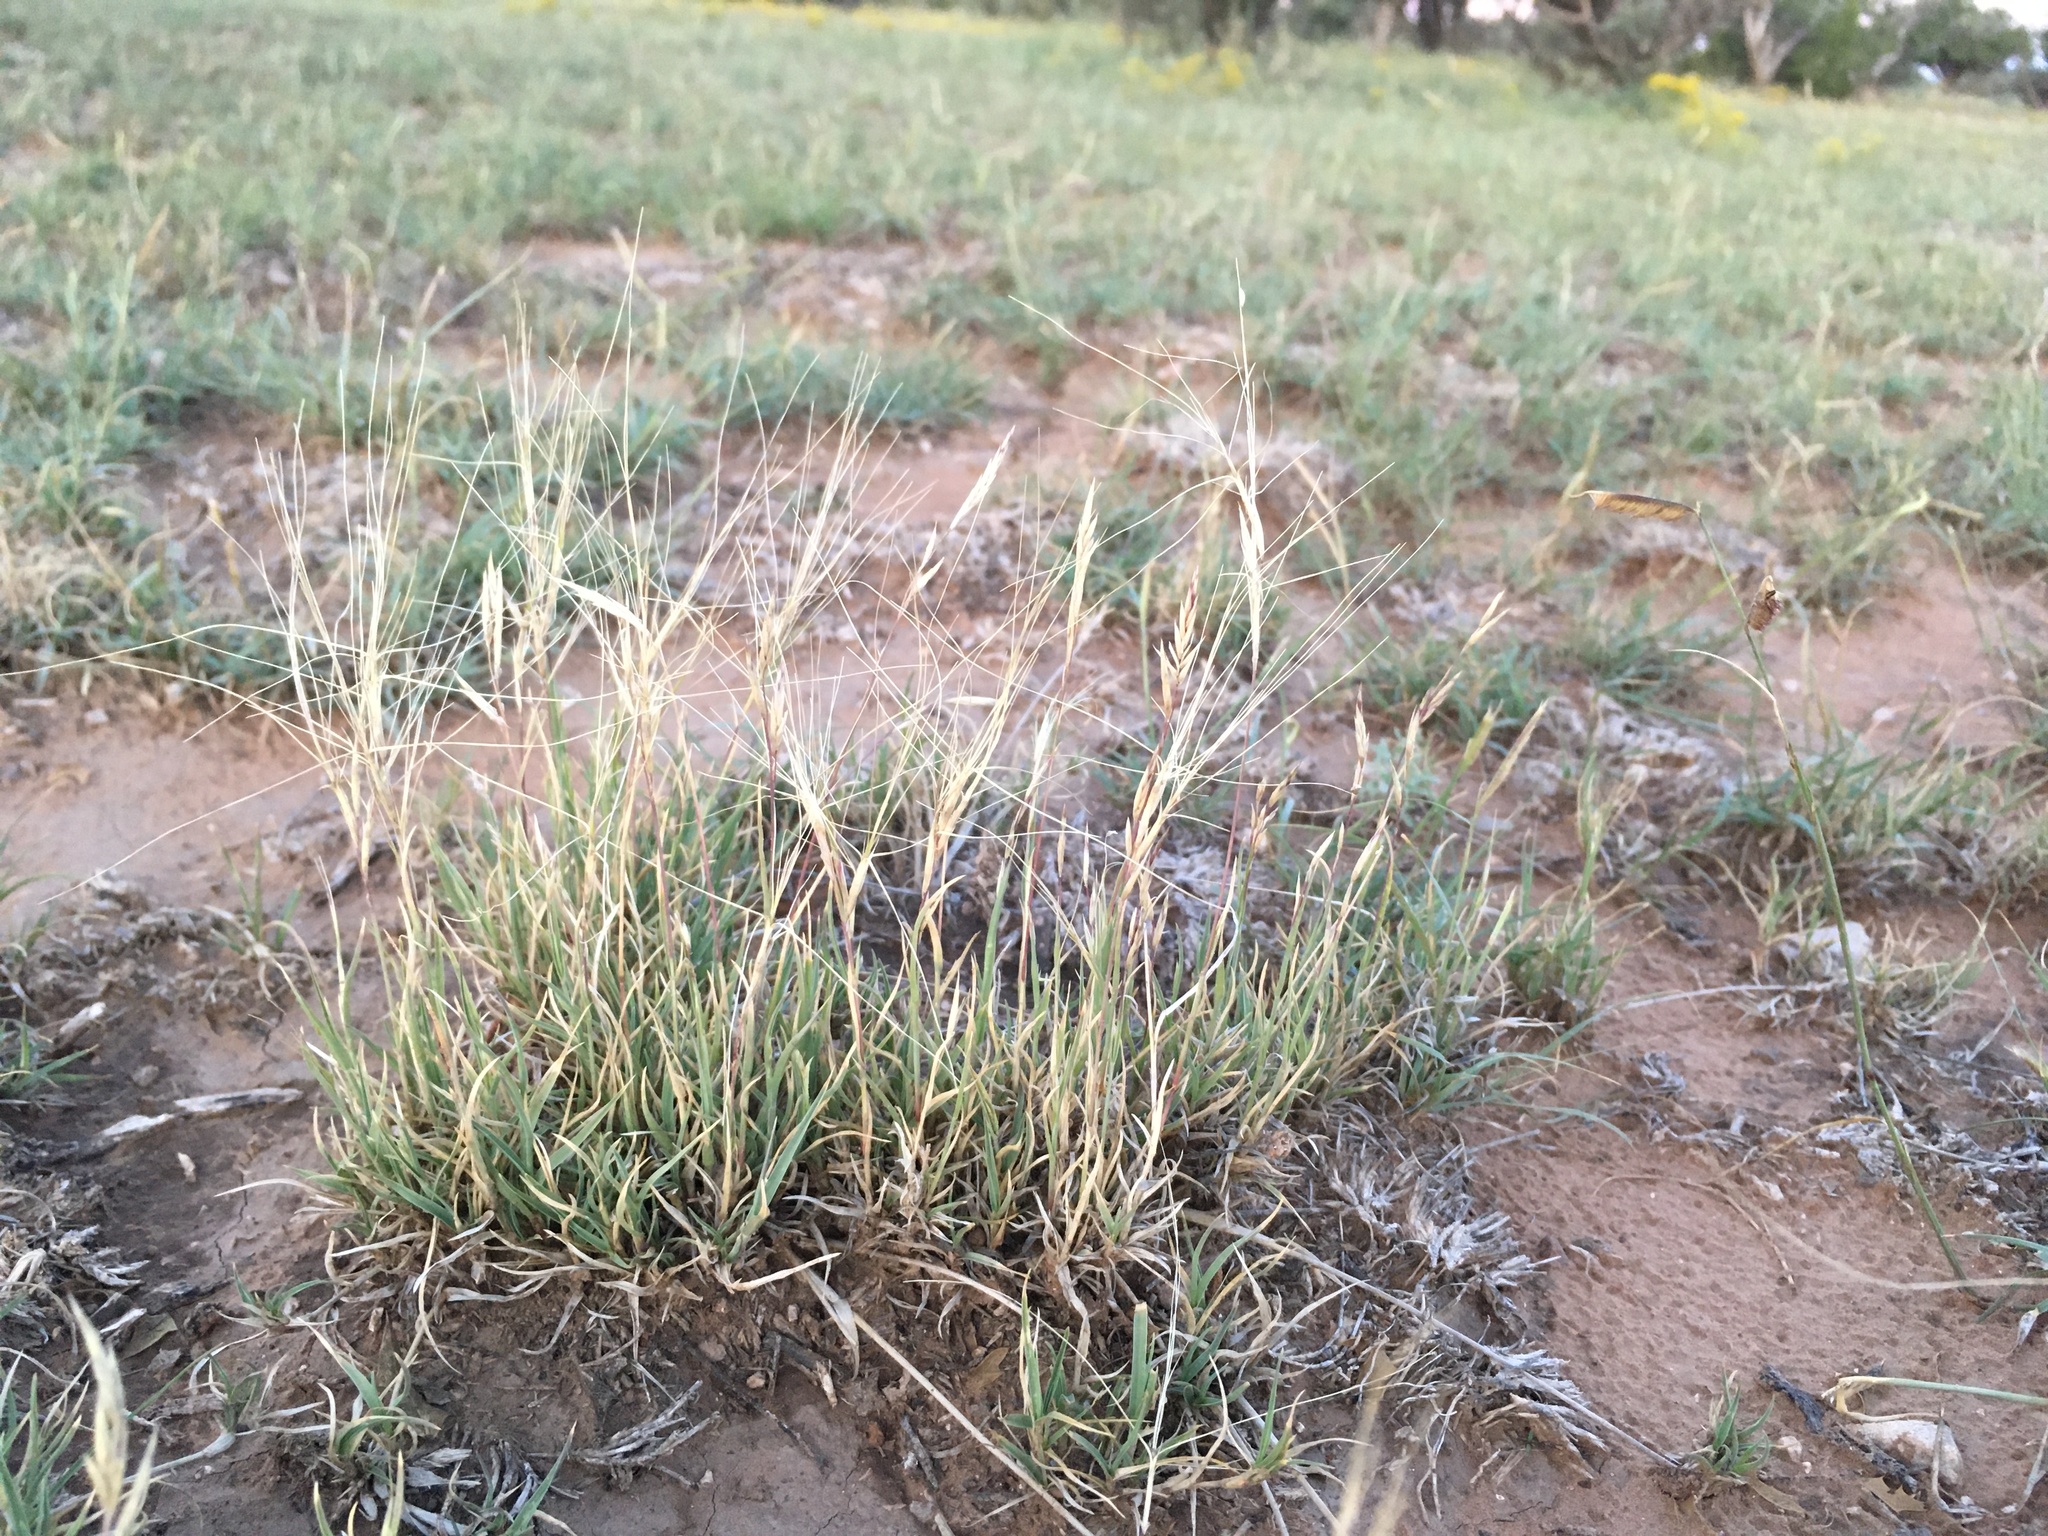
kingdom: Plantae
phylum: Tracheophyta
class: Liliopsida
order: Poales
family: Poaceae
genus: Scleropogon
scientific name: Scleropogon brevifolius
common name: Burro grass
